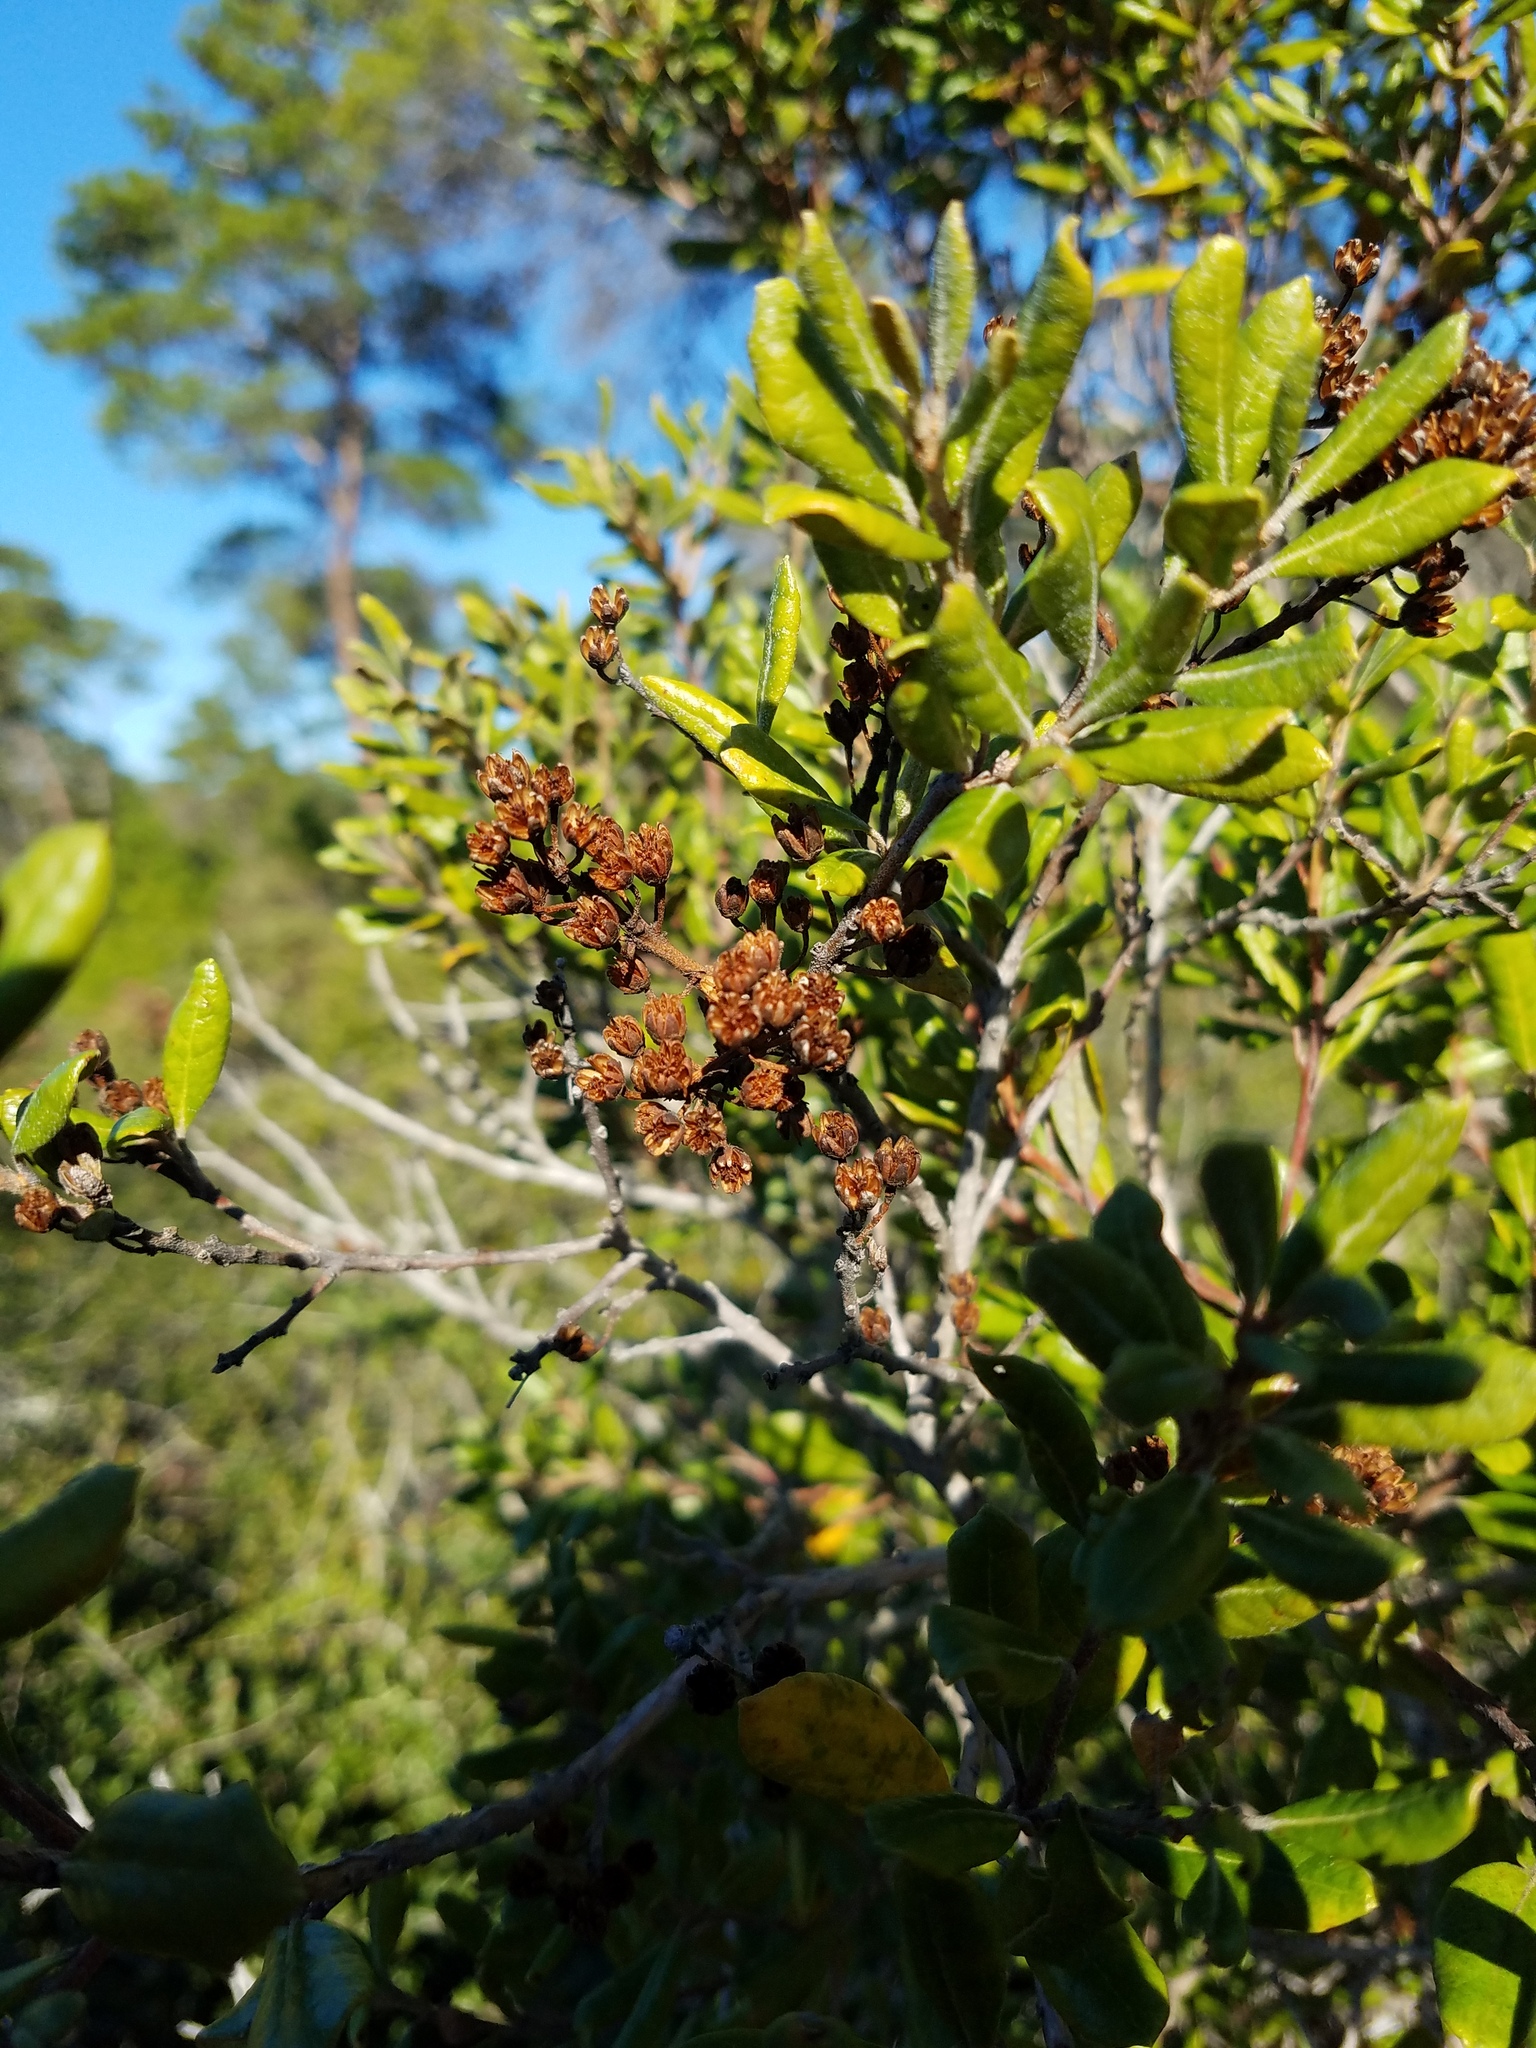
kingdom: Plantae
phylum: Tracheophyta
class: Magnoliopsida
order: Ericales
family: Ericaceae
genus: Lyonia
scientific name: Lyonia ferruginea
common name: Rusty lyonia
